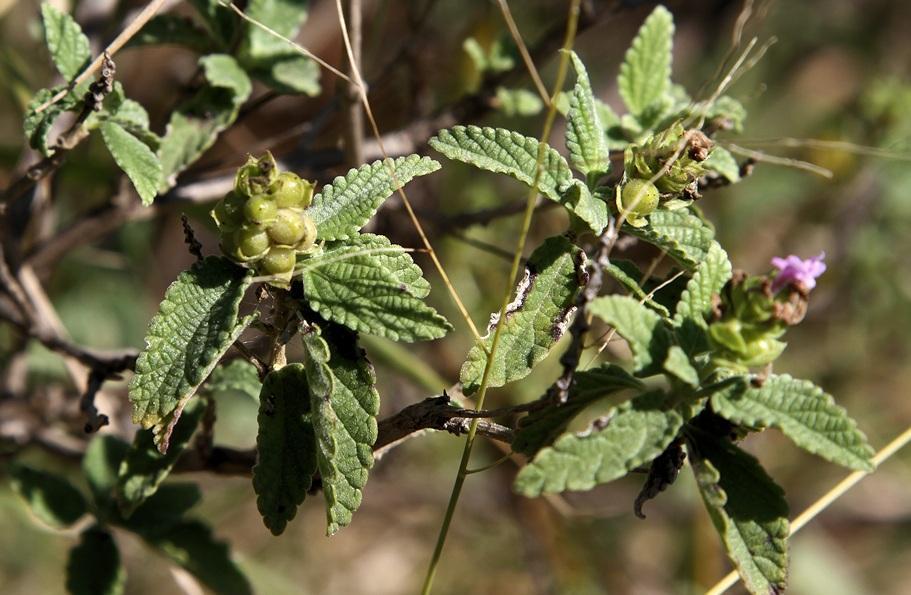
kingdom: Plantae
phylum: Tracheophyta
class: Magnoliopsida
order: Lamiales
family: Verbenaceae
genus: Lantana
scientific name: Lantana rugosa
